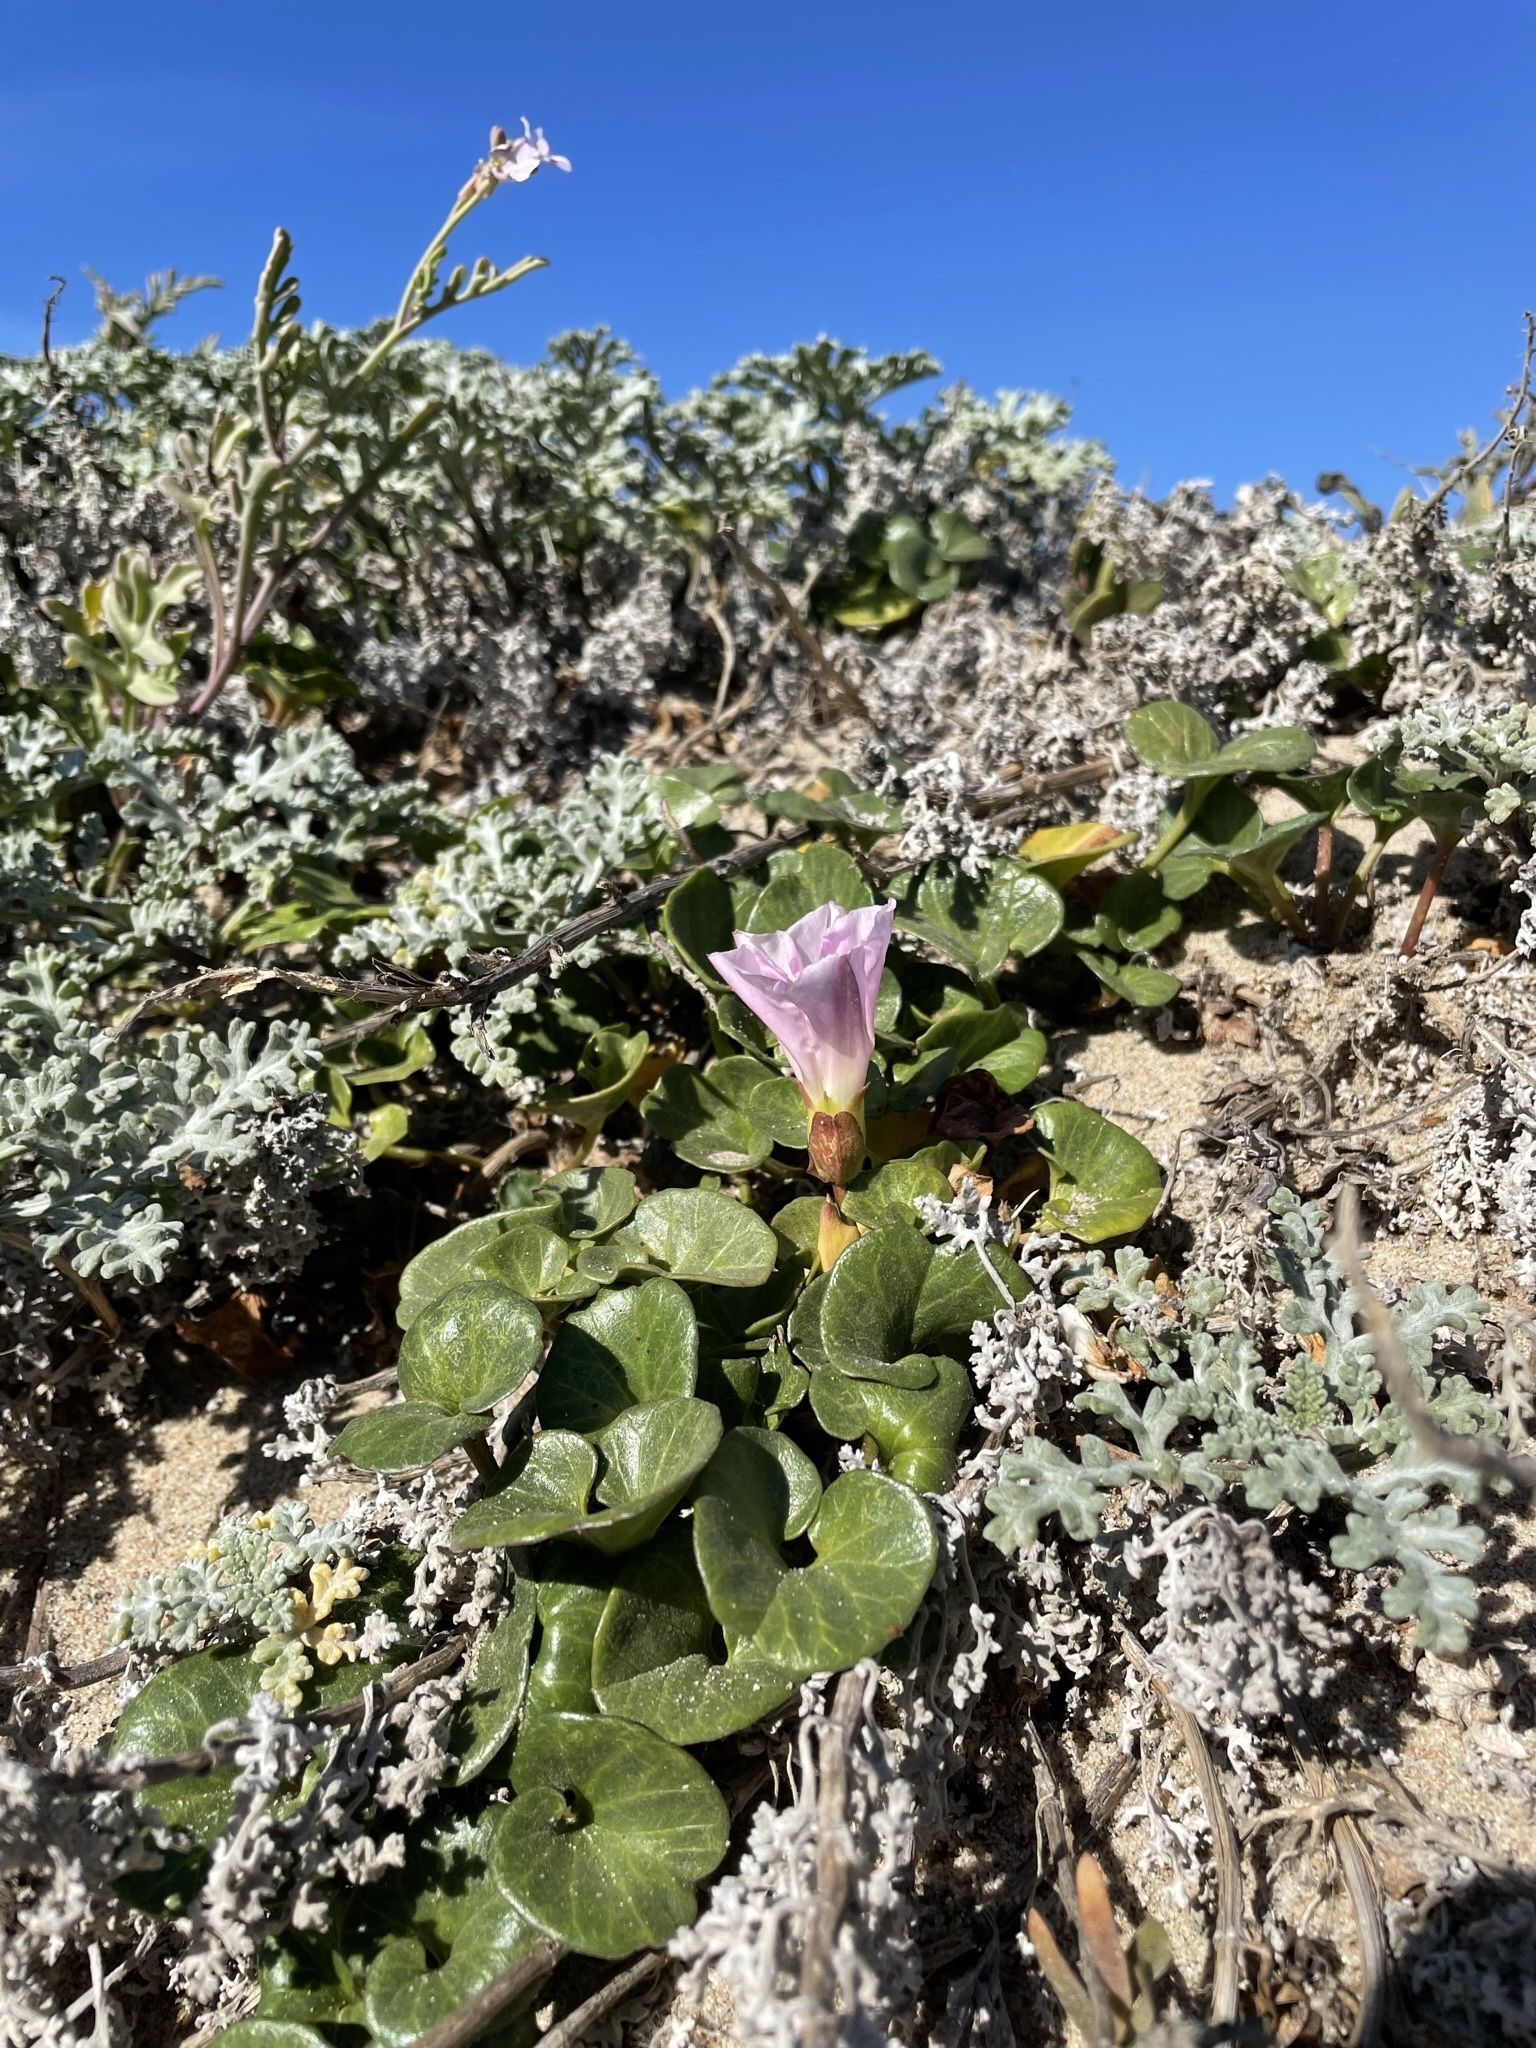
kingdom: Plantae
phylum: Tracheophyta
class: Magnoliopsida
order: Solanales
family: Convolvulaceae
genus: Calystegia
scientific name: Calystegia soldanella
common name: Sea bindweed
